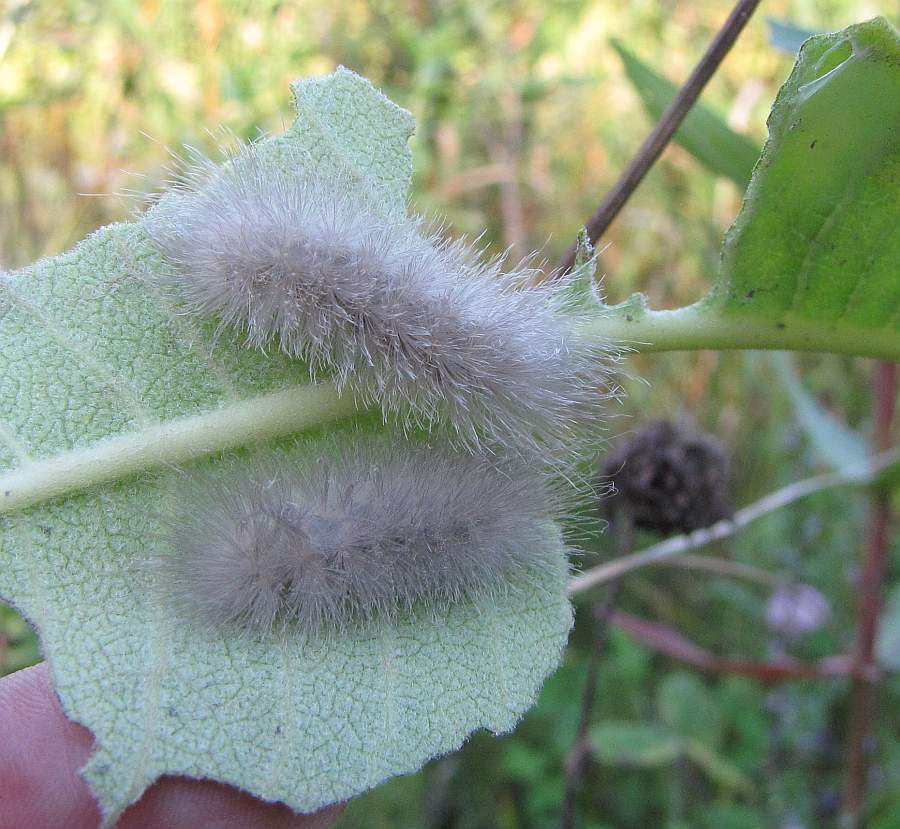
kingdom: Animalia
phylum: Arthropoda
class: Insecta
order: Lepidoptera
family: Erebidae
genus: Cycnia
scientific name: Cycnia tenera
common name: Delicate cycnia moth
